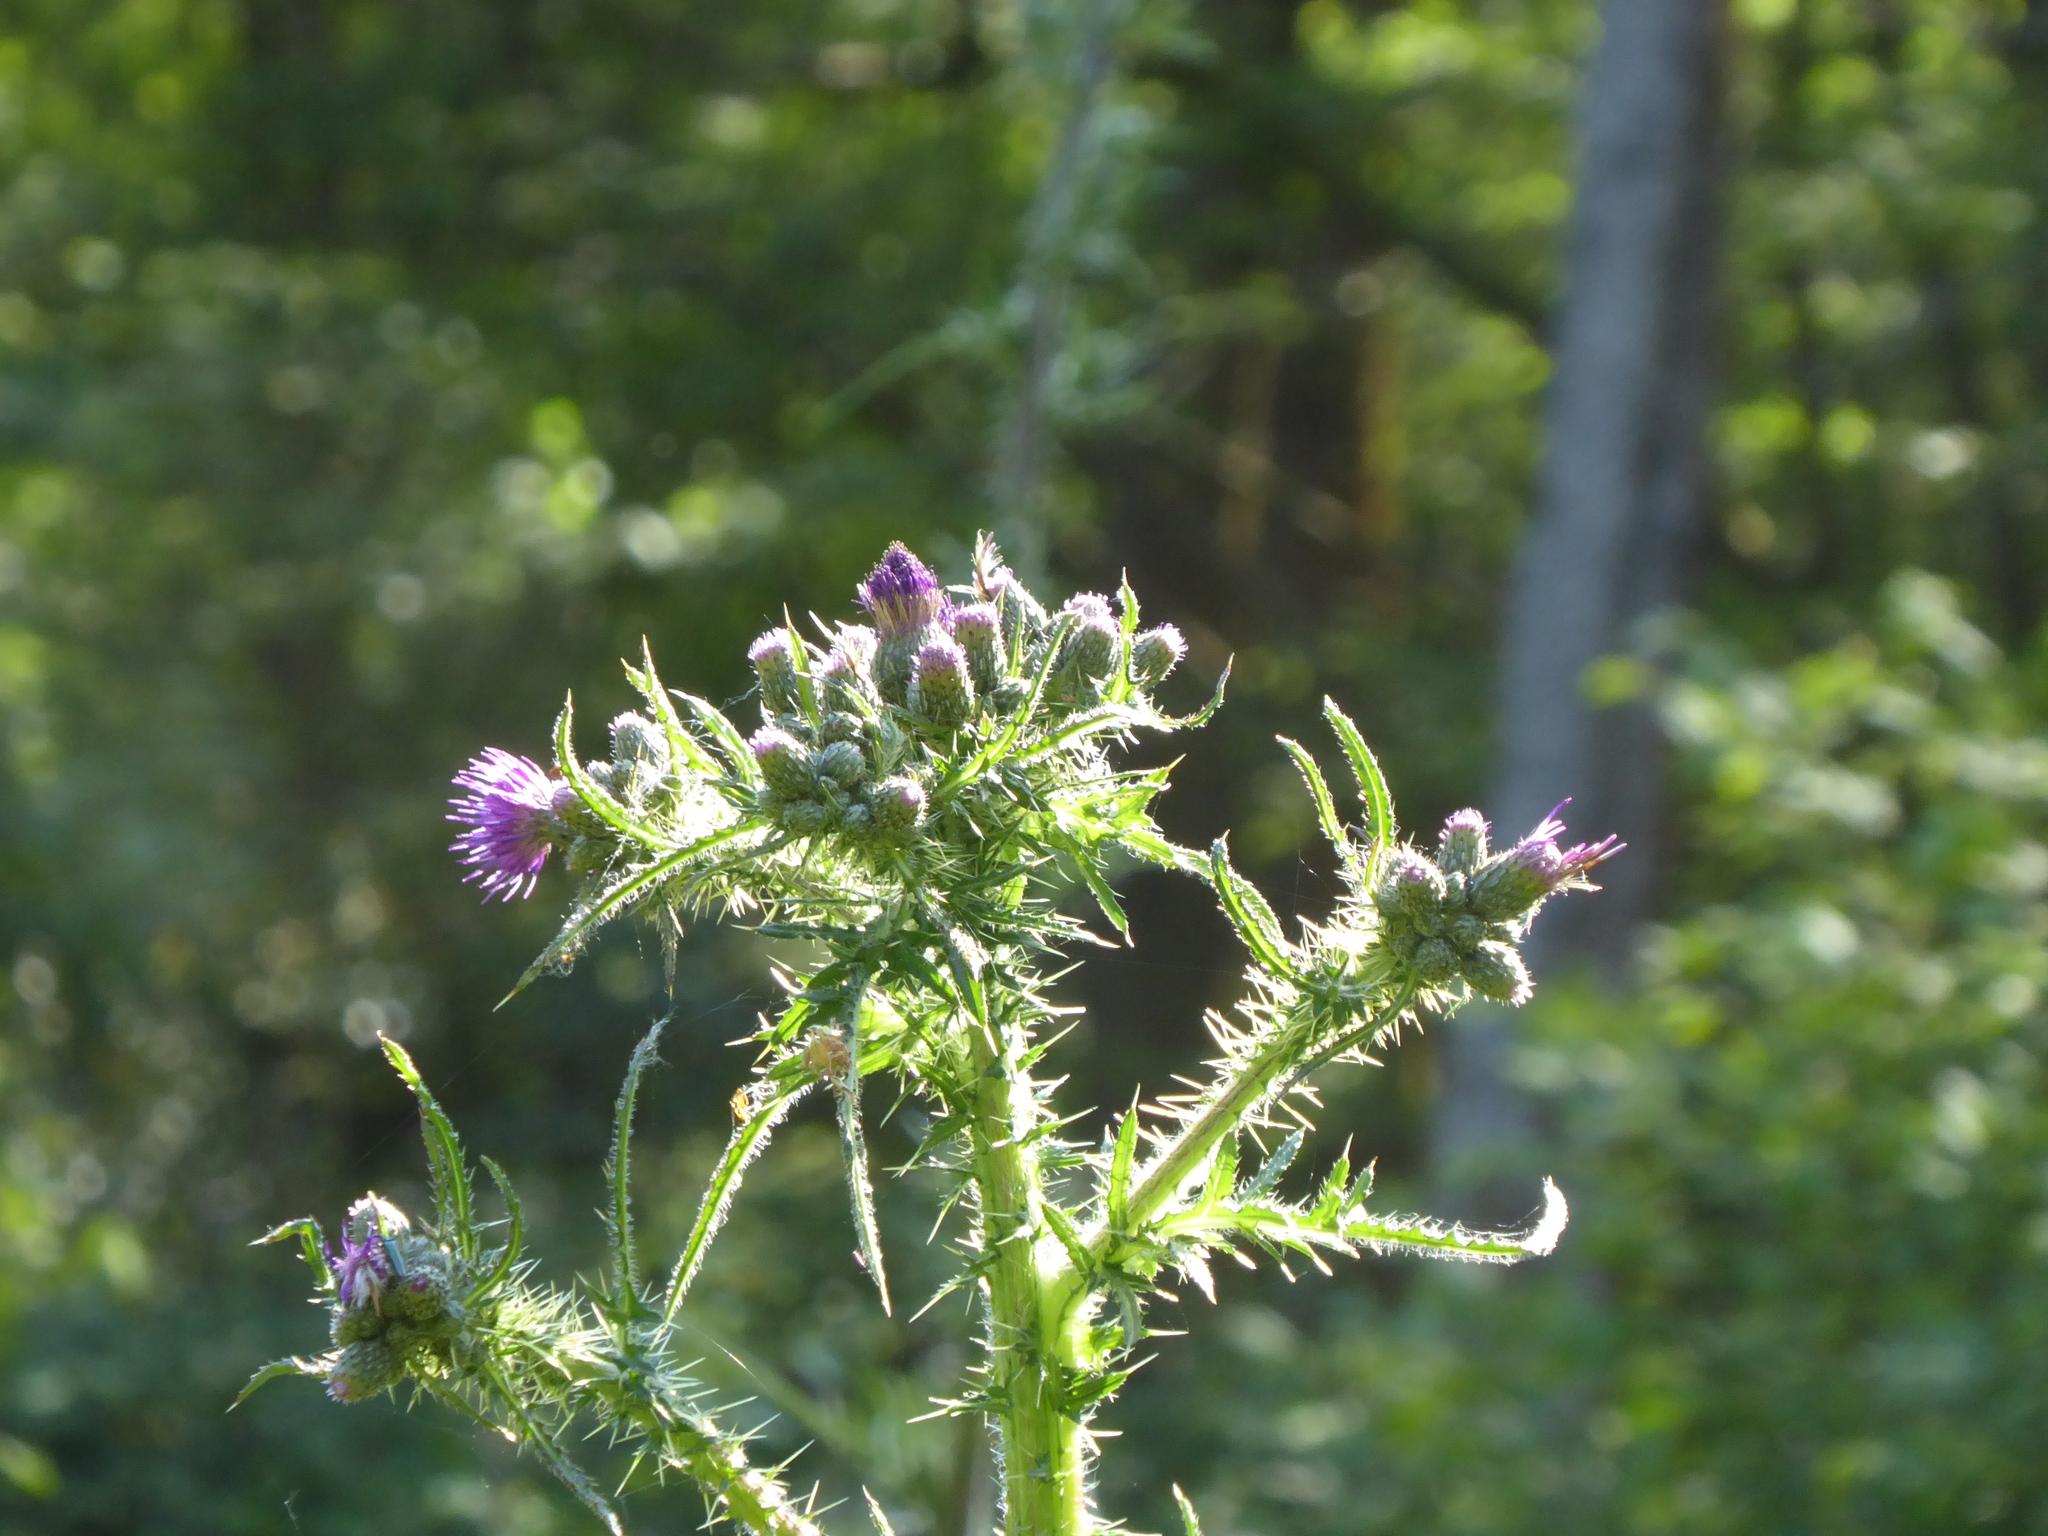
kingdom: Plantae
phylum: Tracheophyta
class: Magnoliopsida
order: Asterales
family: Asteraceae
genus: Cirsium
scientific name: Cirsium palustre
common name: Marsh thistle
